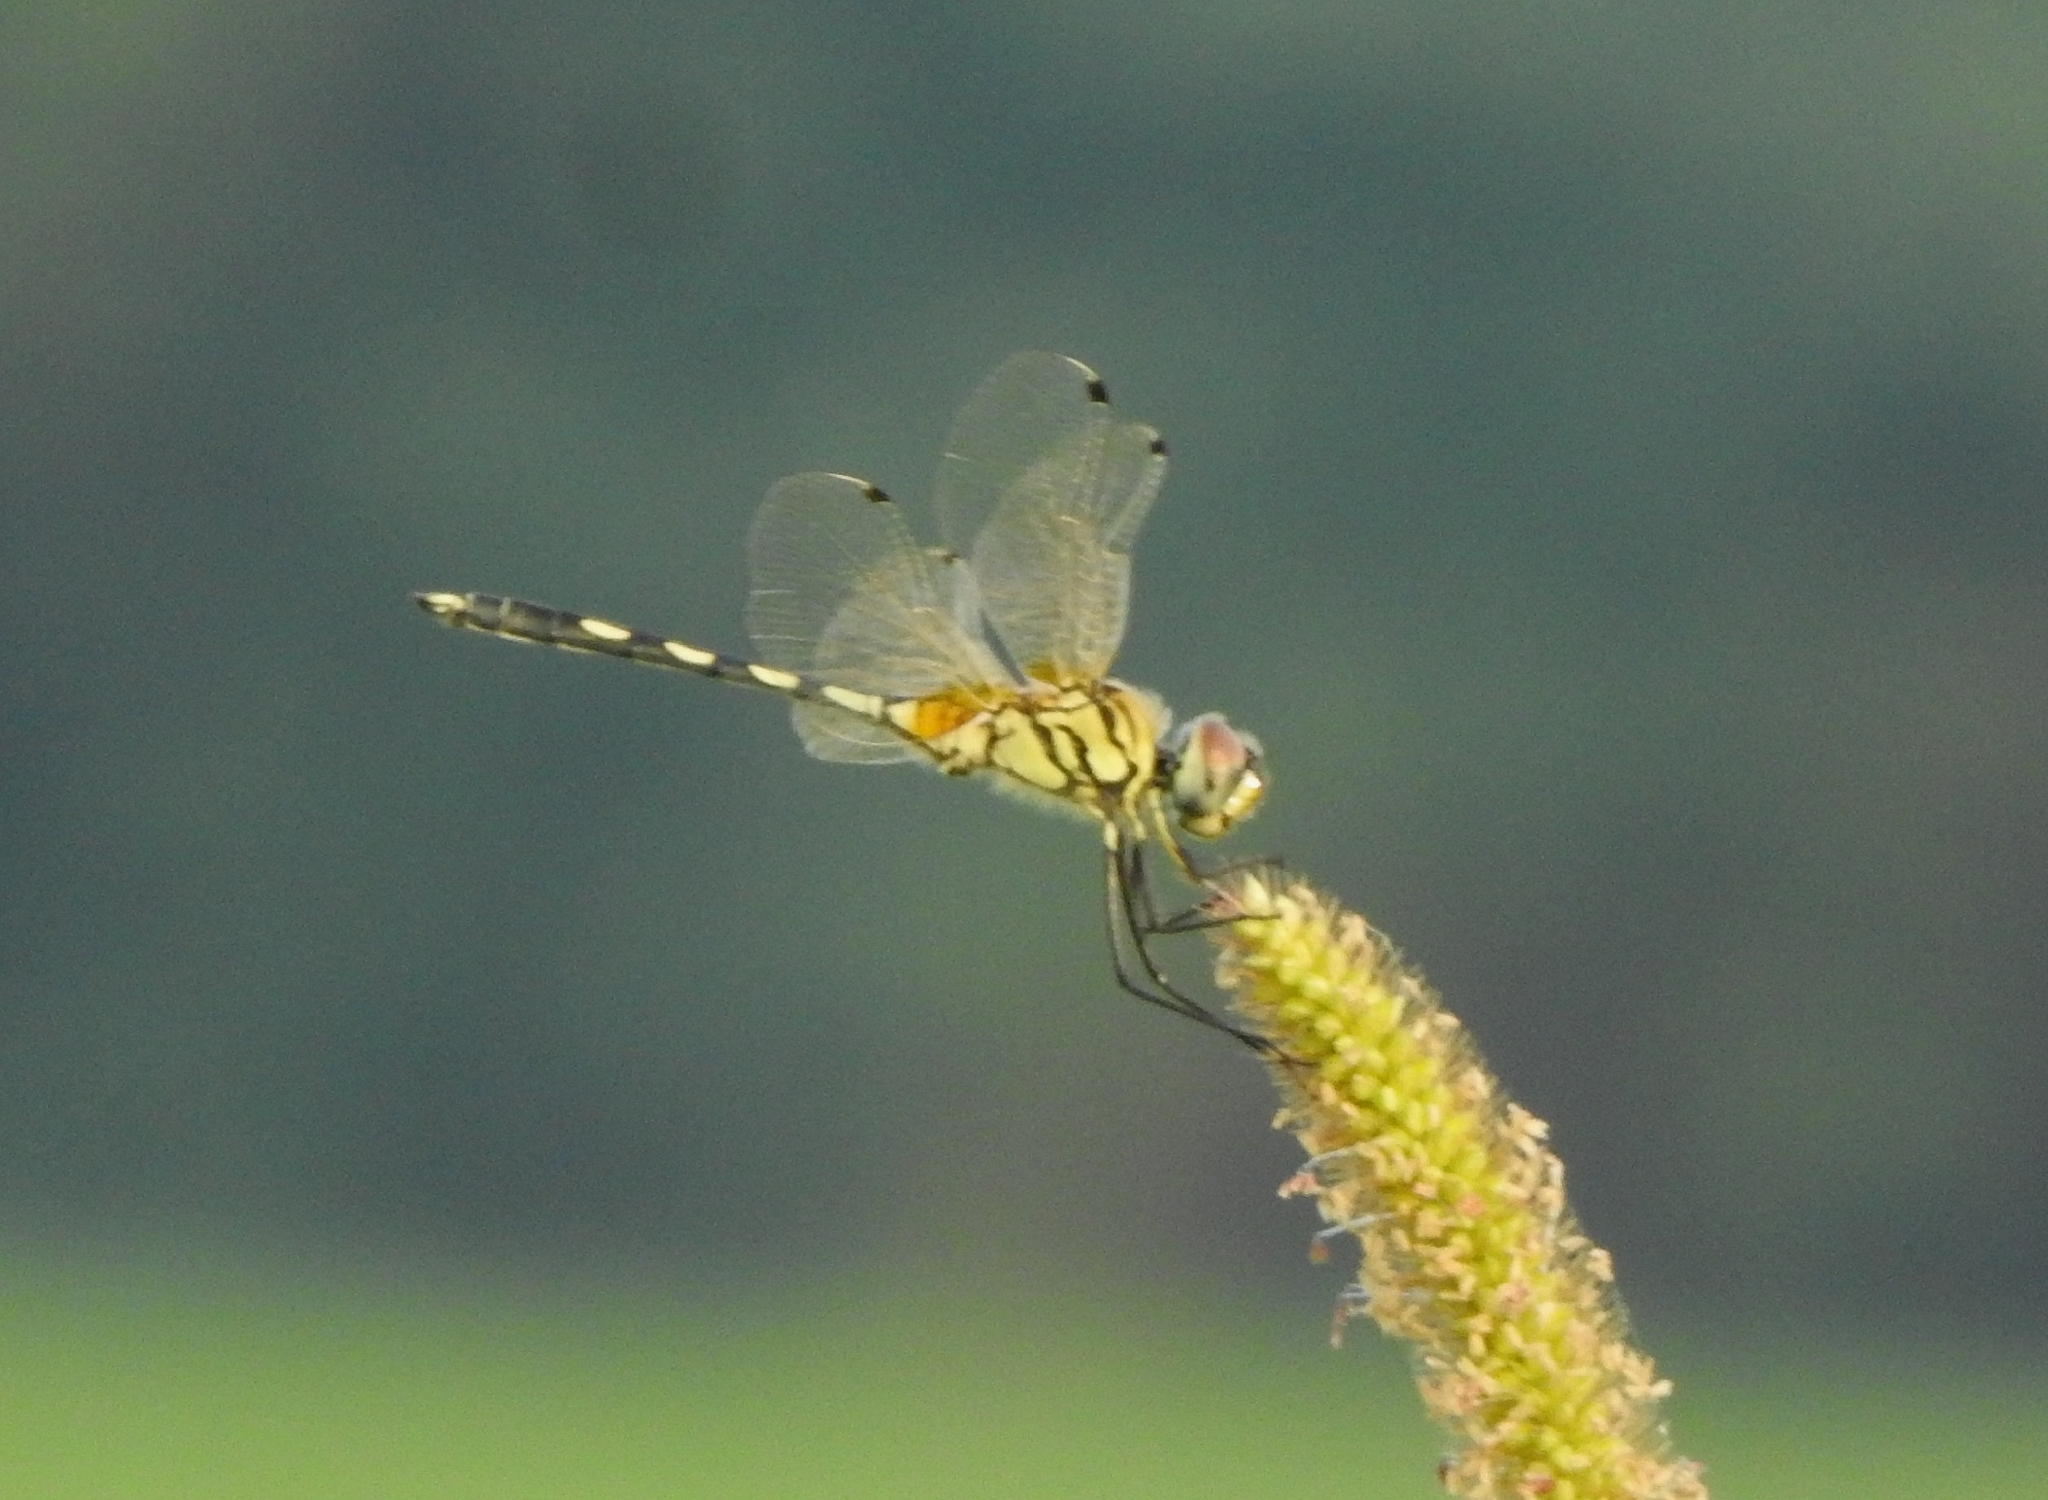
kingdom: Animalia
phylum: Arthropoda
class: Insecta
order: Odonata
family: Libellulidae
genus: Trithemis
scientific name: Trithemis pallidinervis
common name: Dancing dropwing
